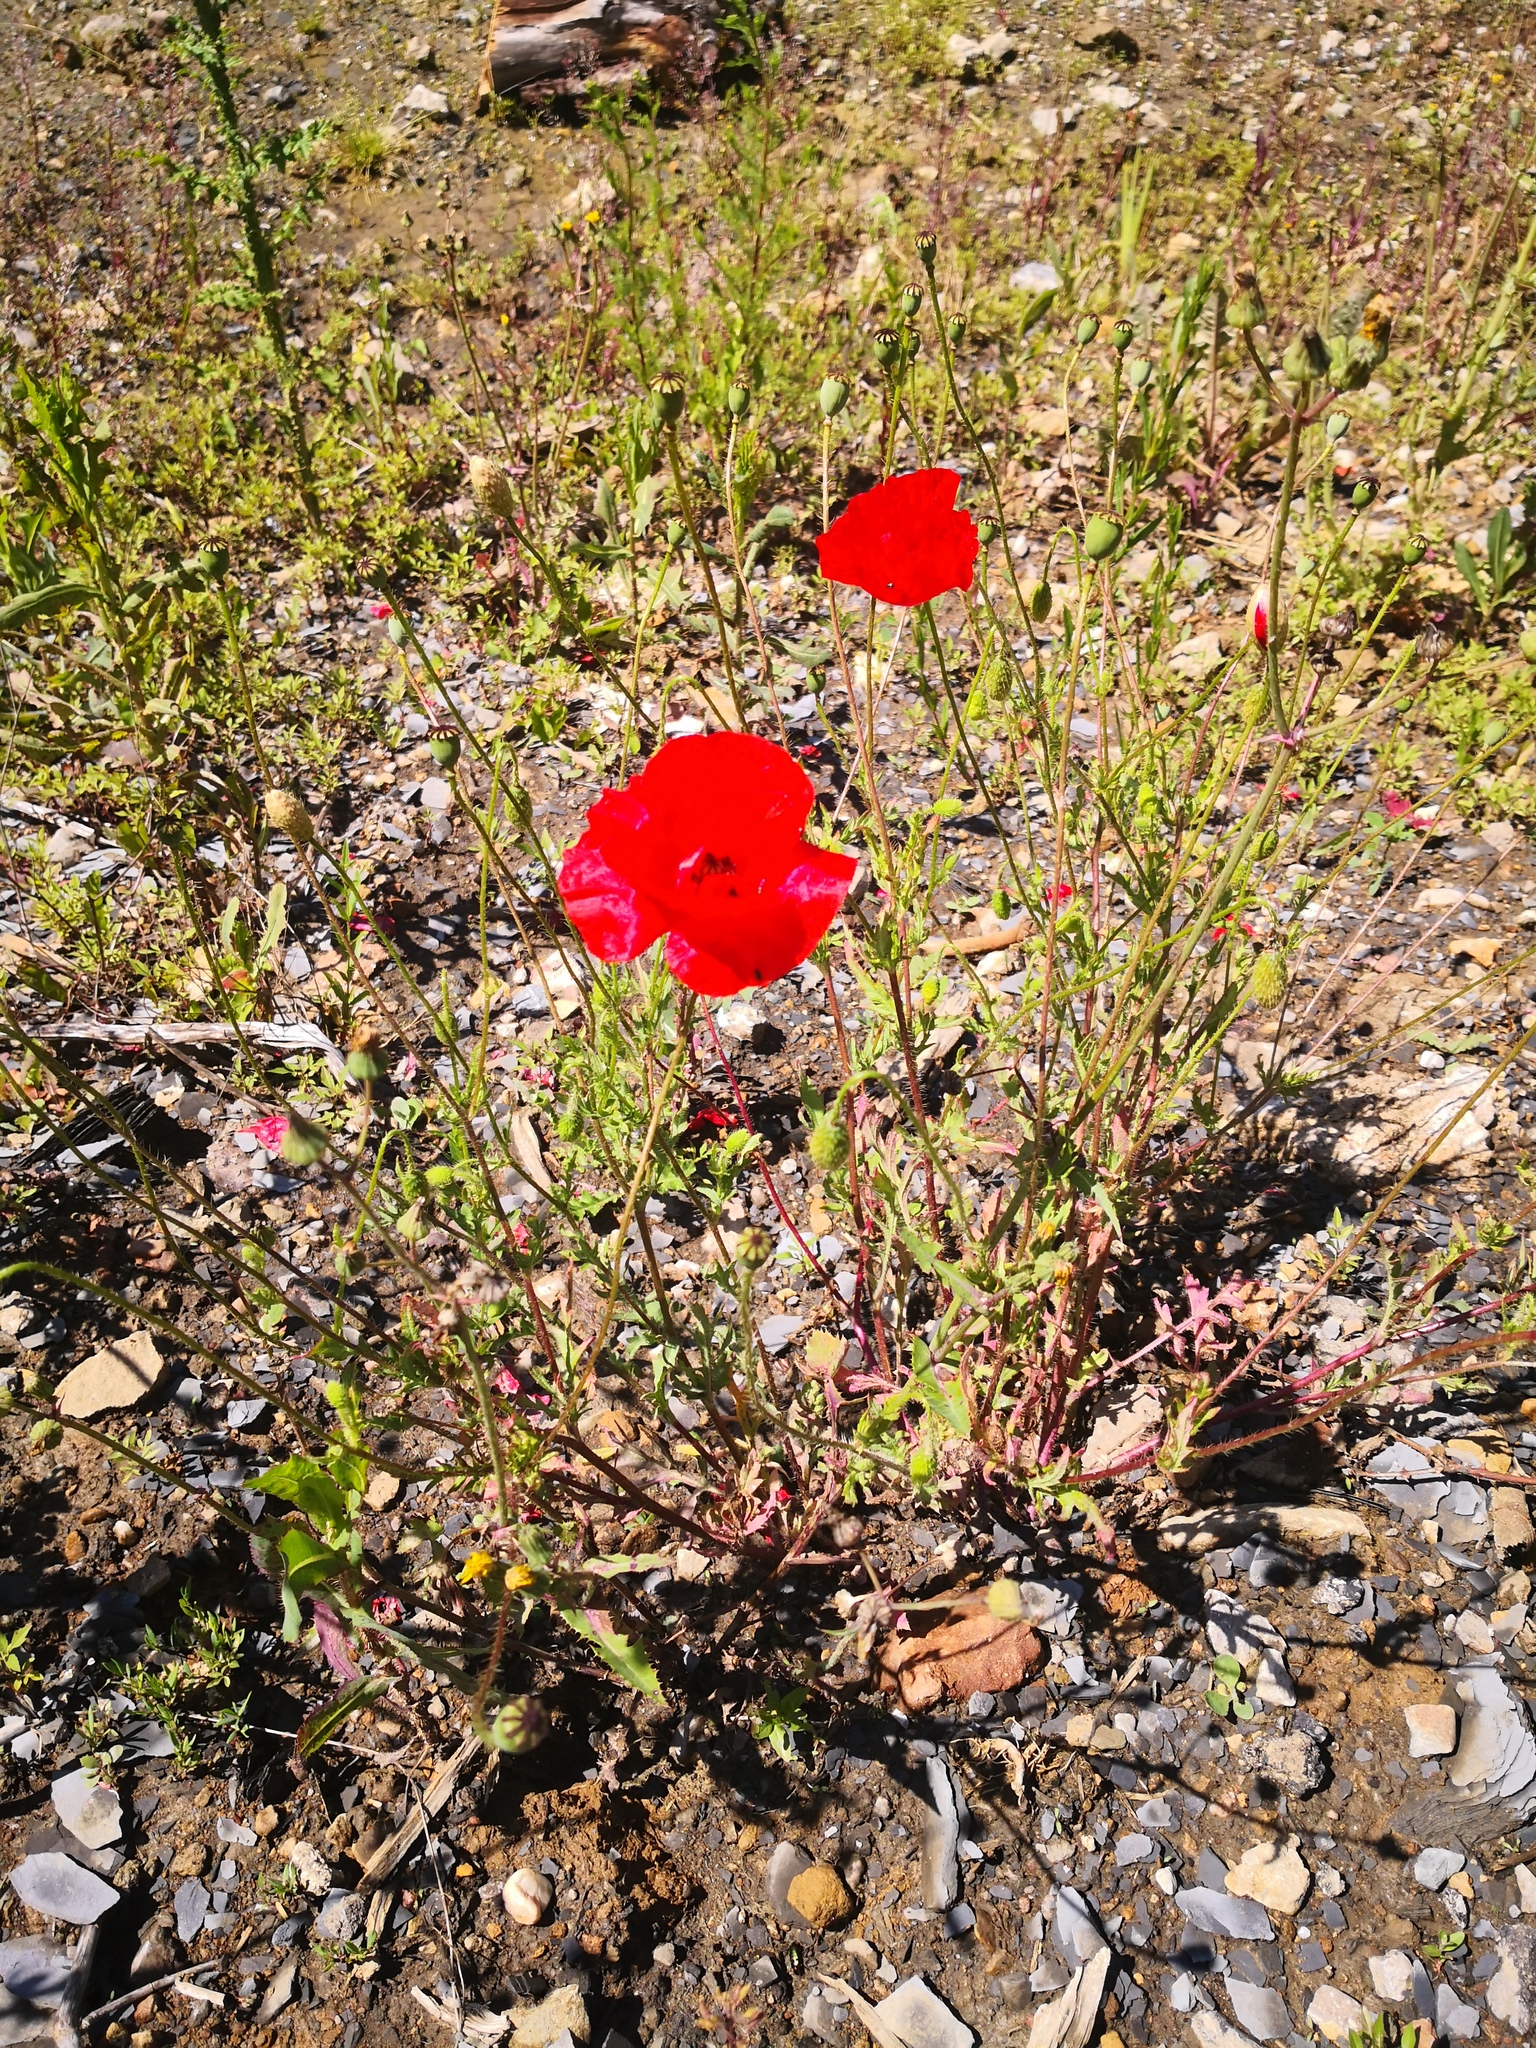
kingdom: Plantae
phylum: Tracheophyta
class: Magnoliopsida
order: Ranunculales
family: Papaveraceae
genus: Papaver
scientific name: Papaver rhoeas
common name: Corn poppy
